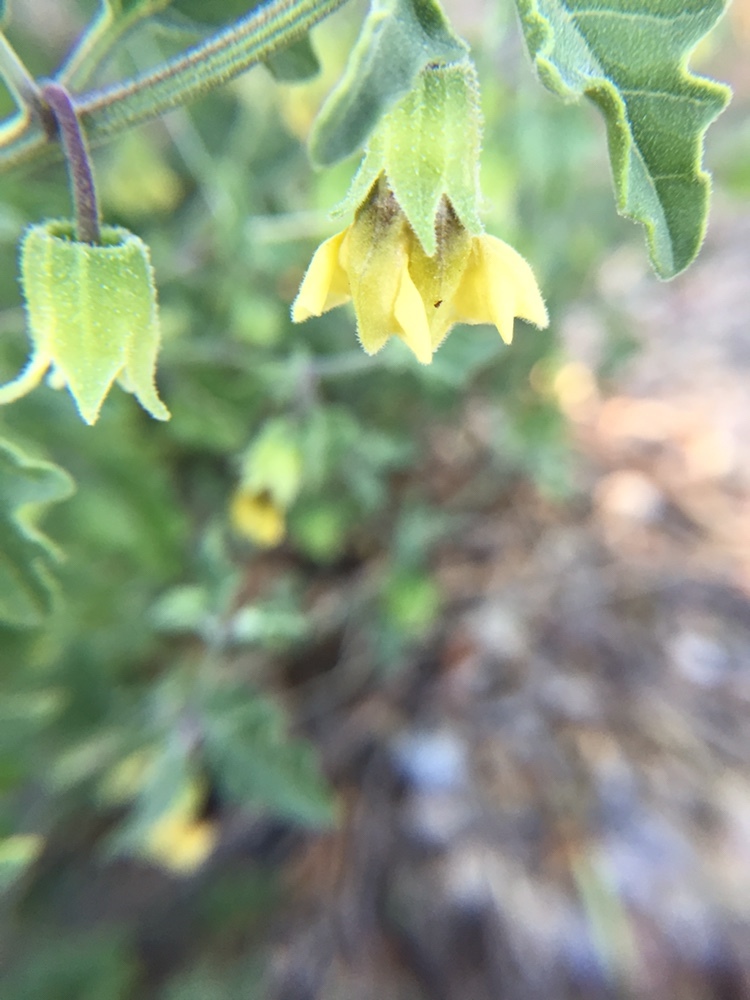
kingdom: Plantae
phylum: Tracheophyta
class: Magnoliopsida
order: Solanales
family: Solanaceae
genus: Physalis
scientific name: Physalis hederifolia
